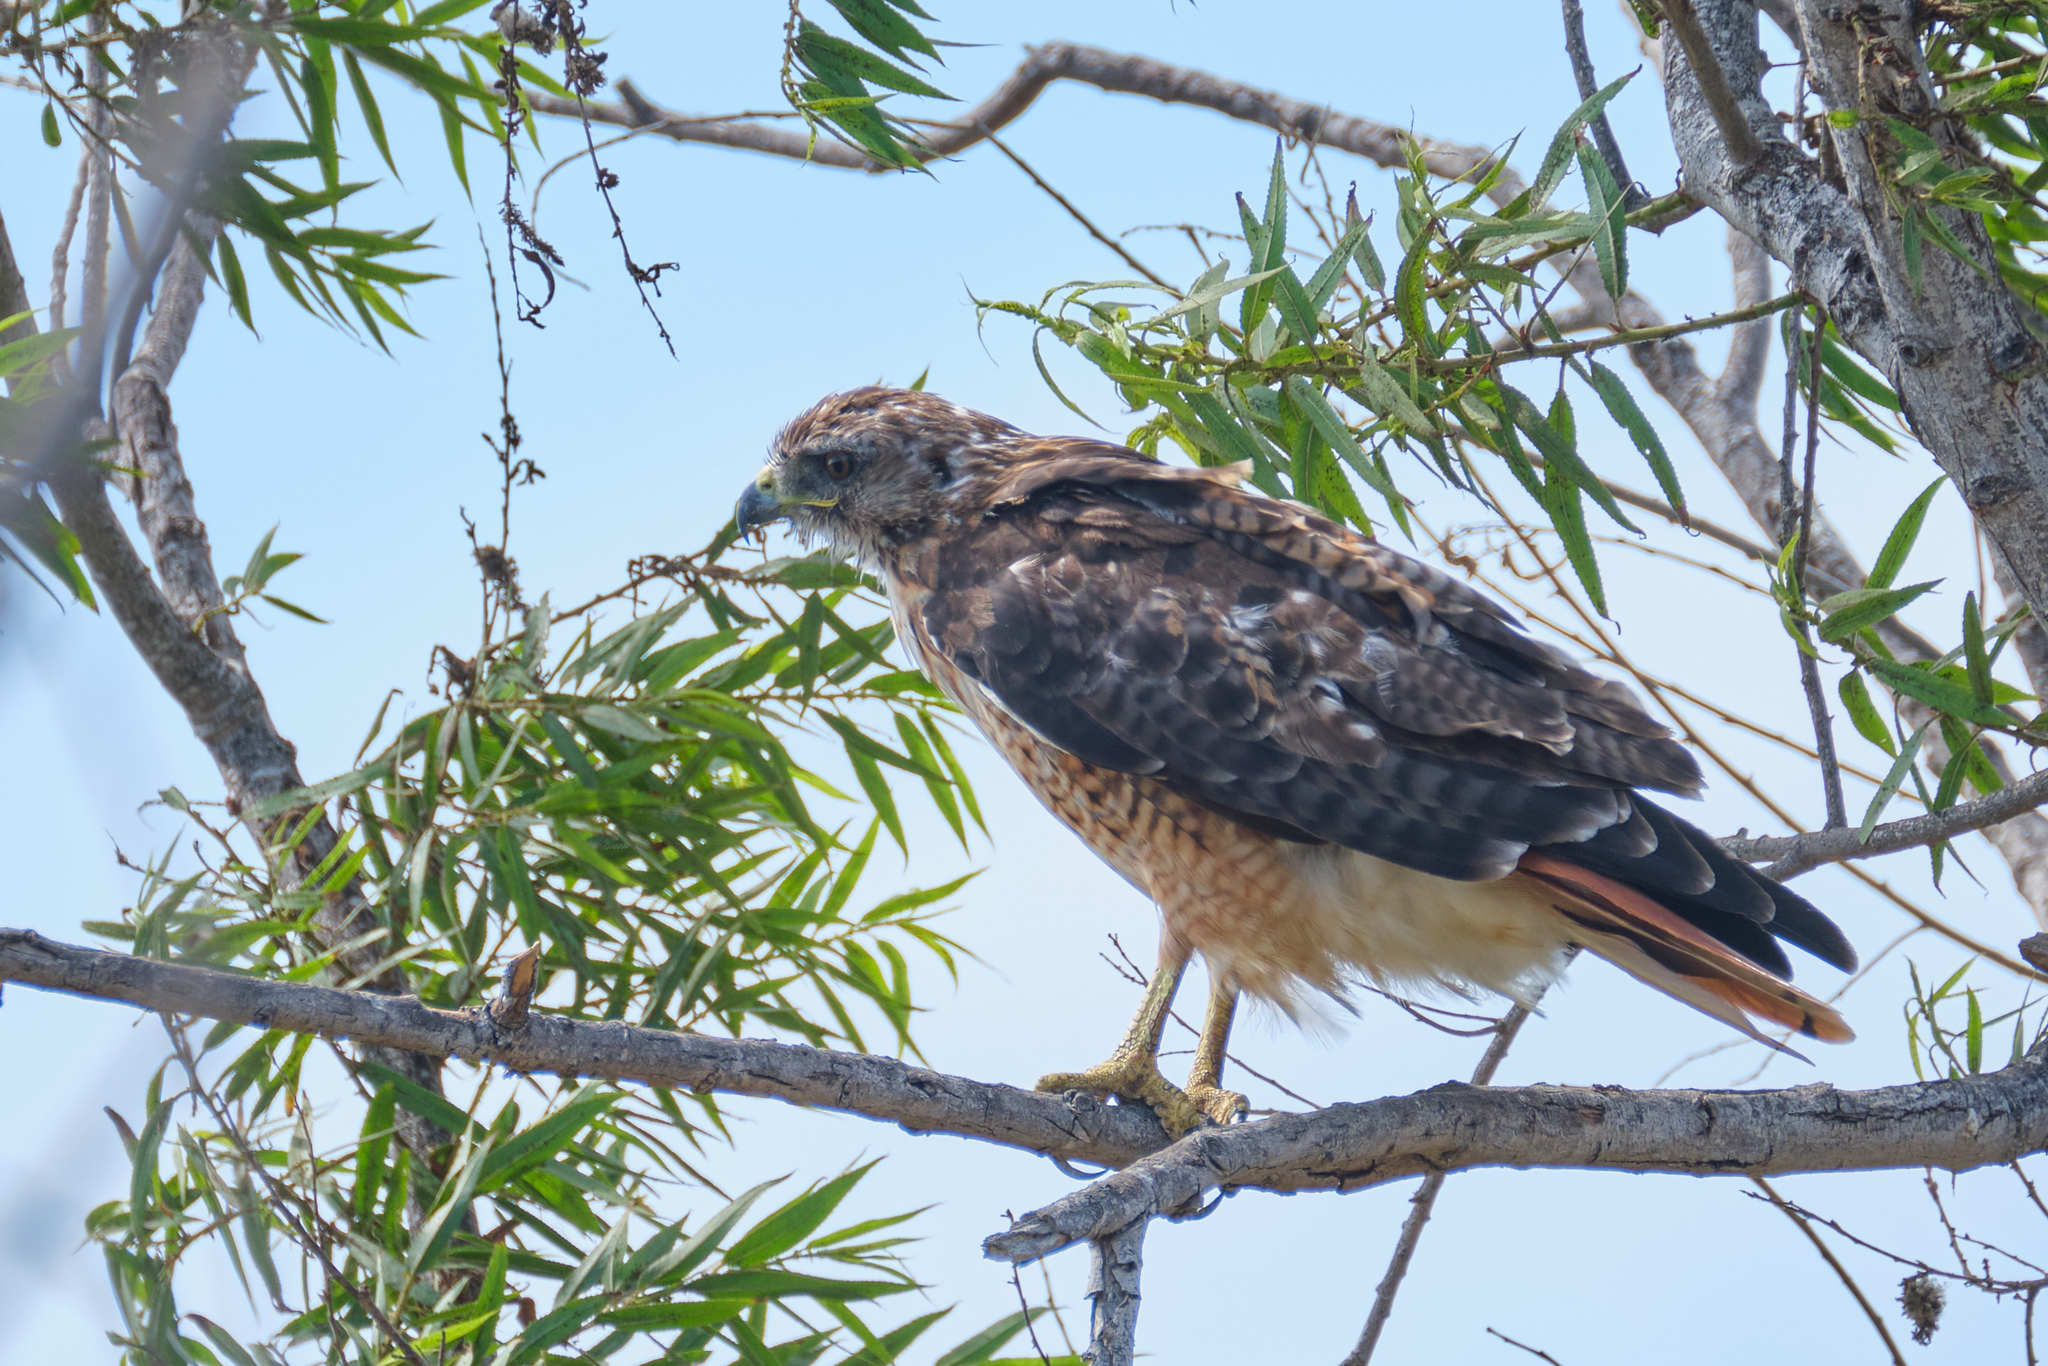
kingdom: Animalia
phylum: Chordata
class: Aves
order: Accipitriformes
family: Accipitridae
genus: Buteo
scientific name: Buteo jamaicensis
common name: Red-tailed hawk
